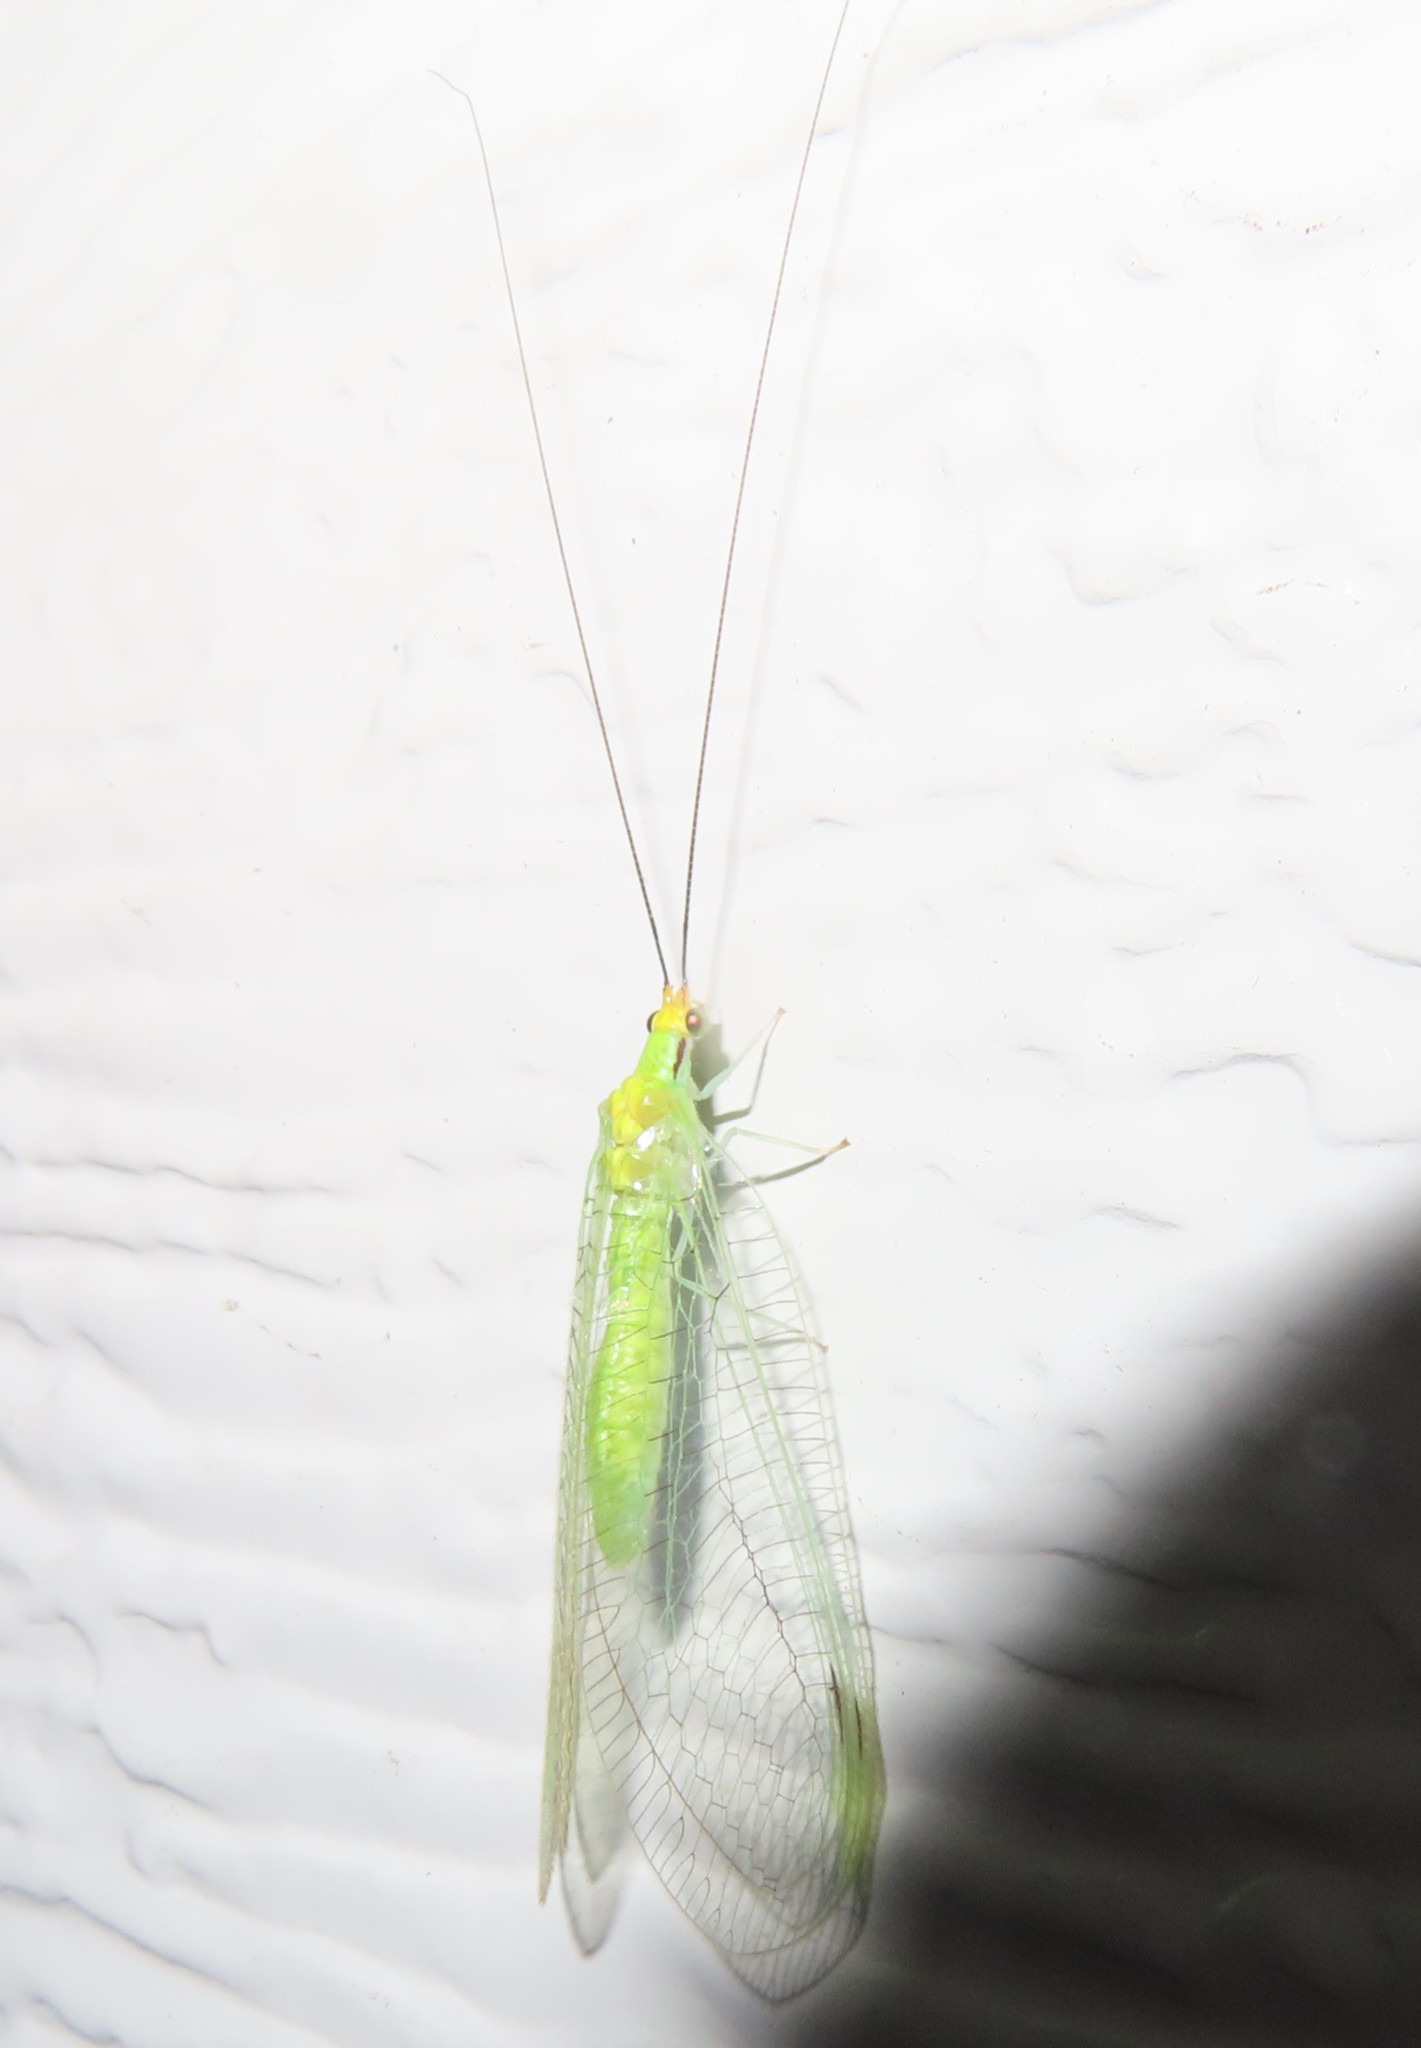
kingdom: Animalia
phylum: Arthropoda
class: Insecta
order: Neuroptera
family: Chrysopidae
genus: Leucochrysa
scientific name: Leucochrysa pavida
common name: Lichen-carrying green lacewing
